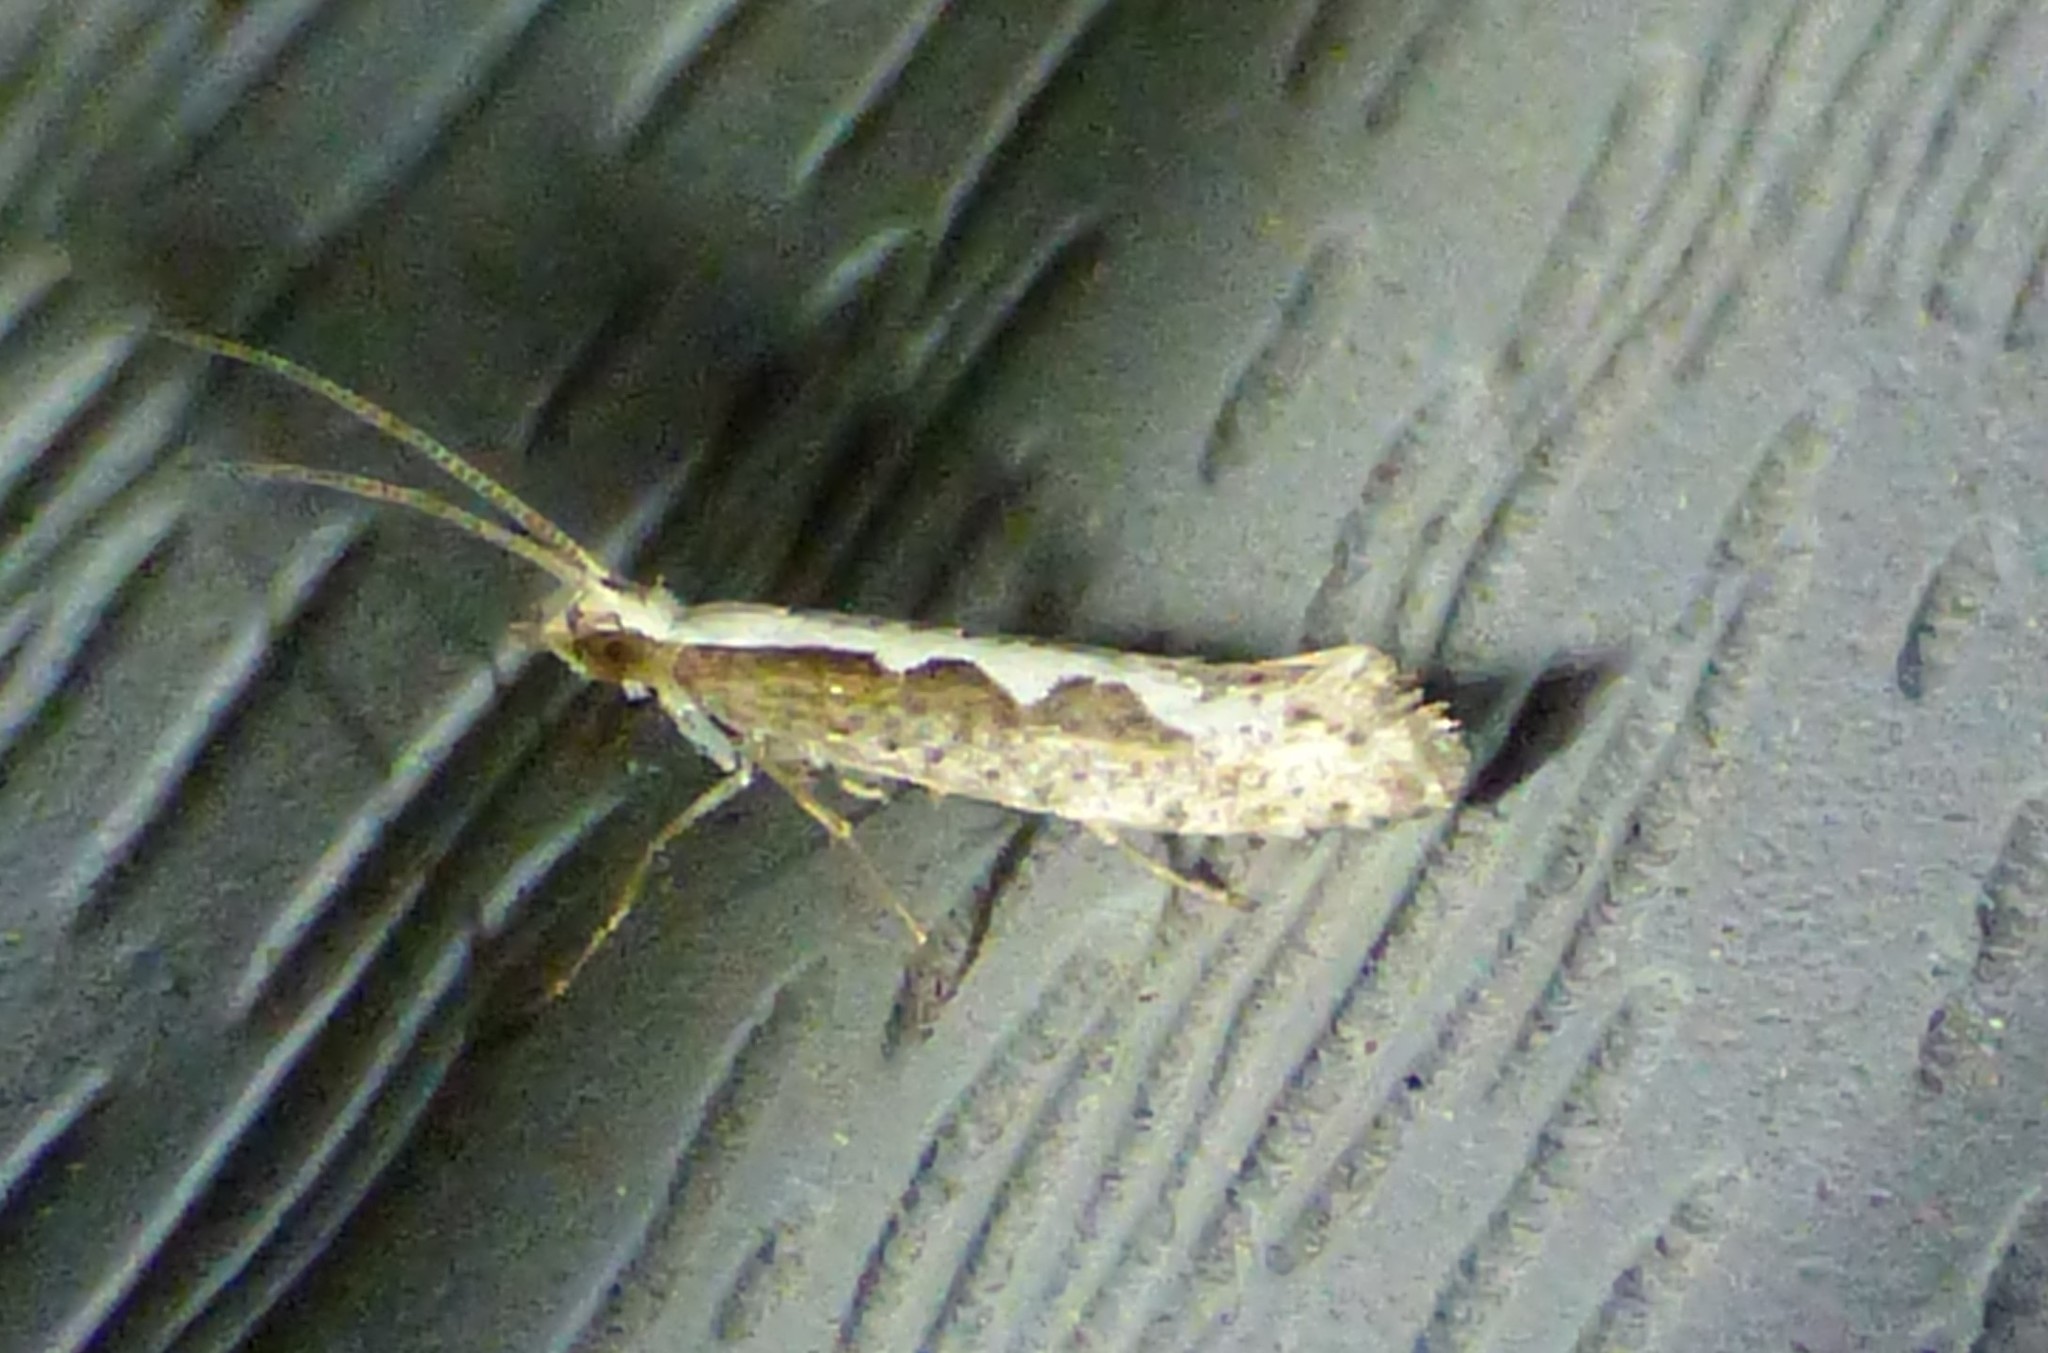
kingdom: Animalia
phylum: Arthropoda
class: Insecta
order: Lepidoptera
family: Plutellidae
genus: Plutella
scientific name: Plutella xylostella
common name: Diamond-back moth
